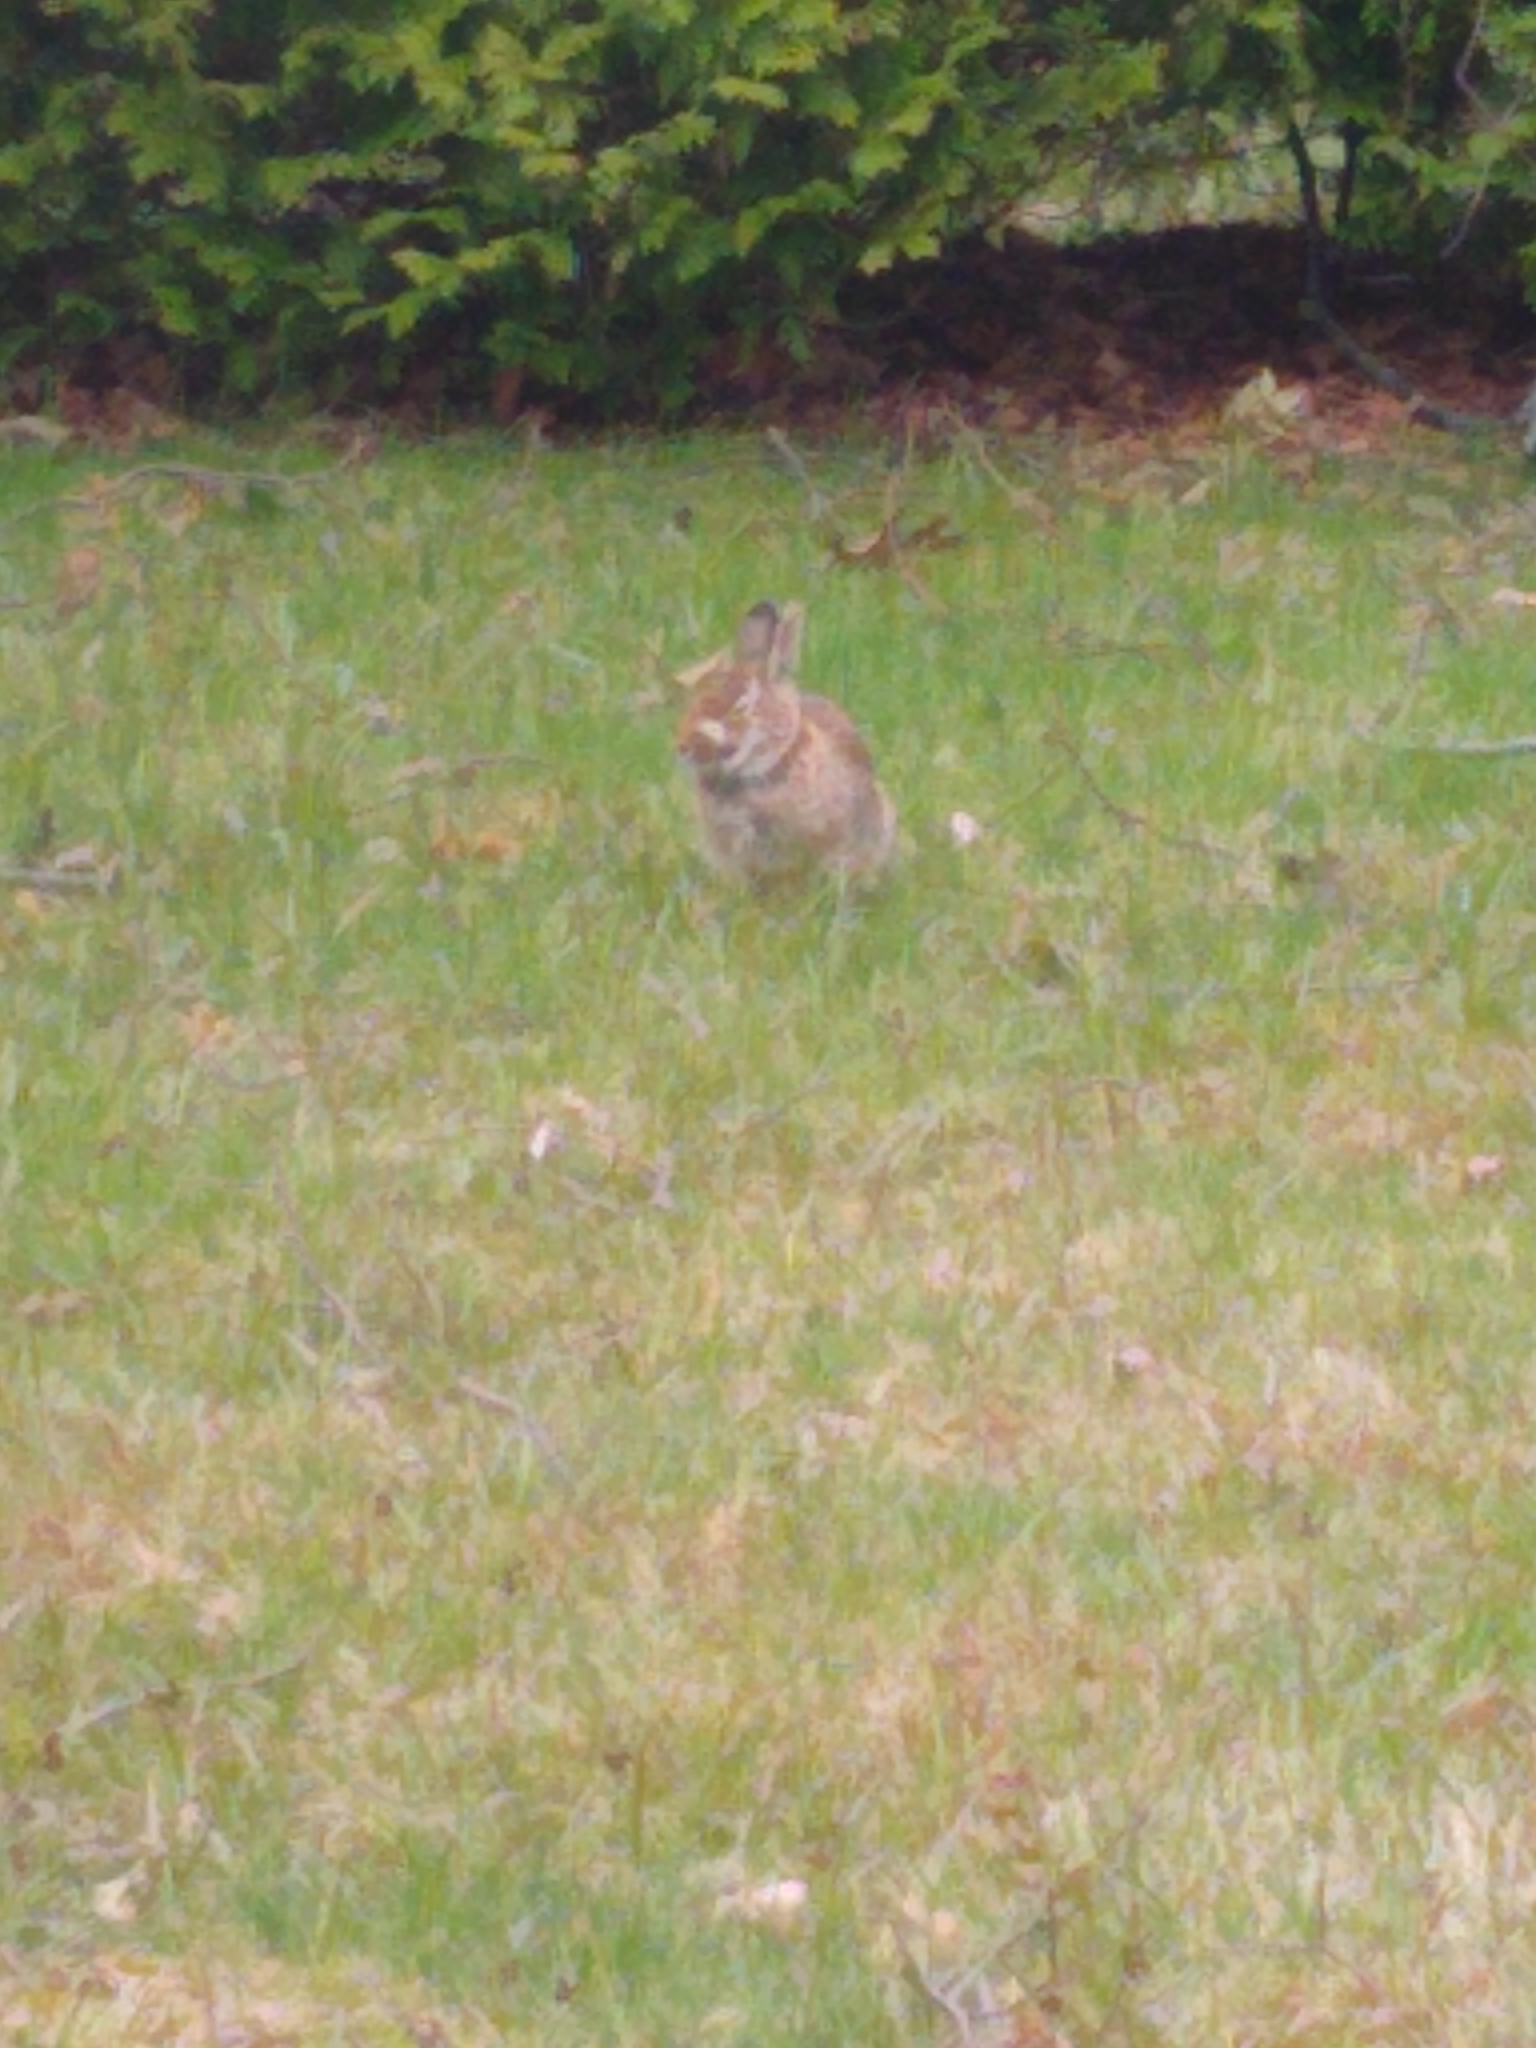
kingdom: Animalia
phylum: Chordata
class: Mammalia
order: Lagomorpha
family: Leporidae
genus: Sylvilagus
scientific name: Sylvilagus floridanus
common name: Eastern cottontail
